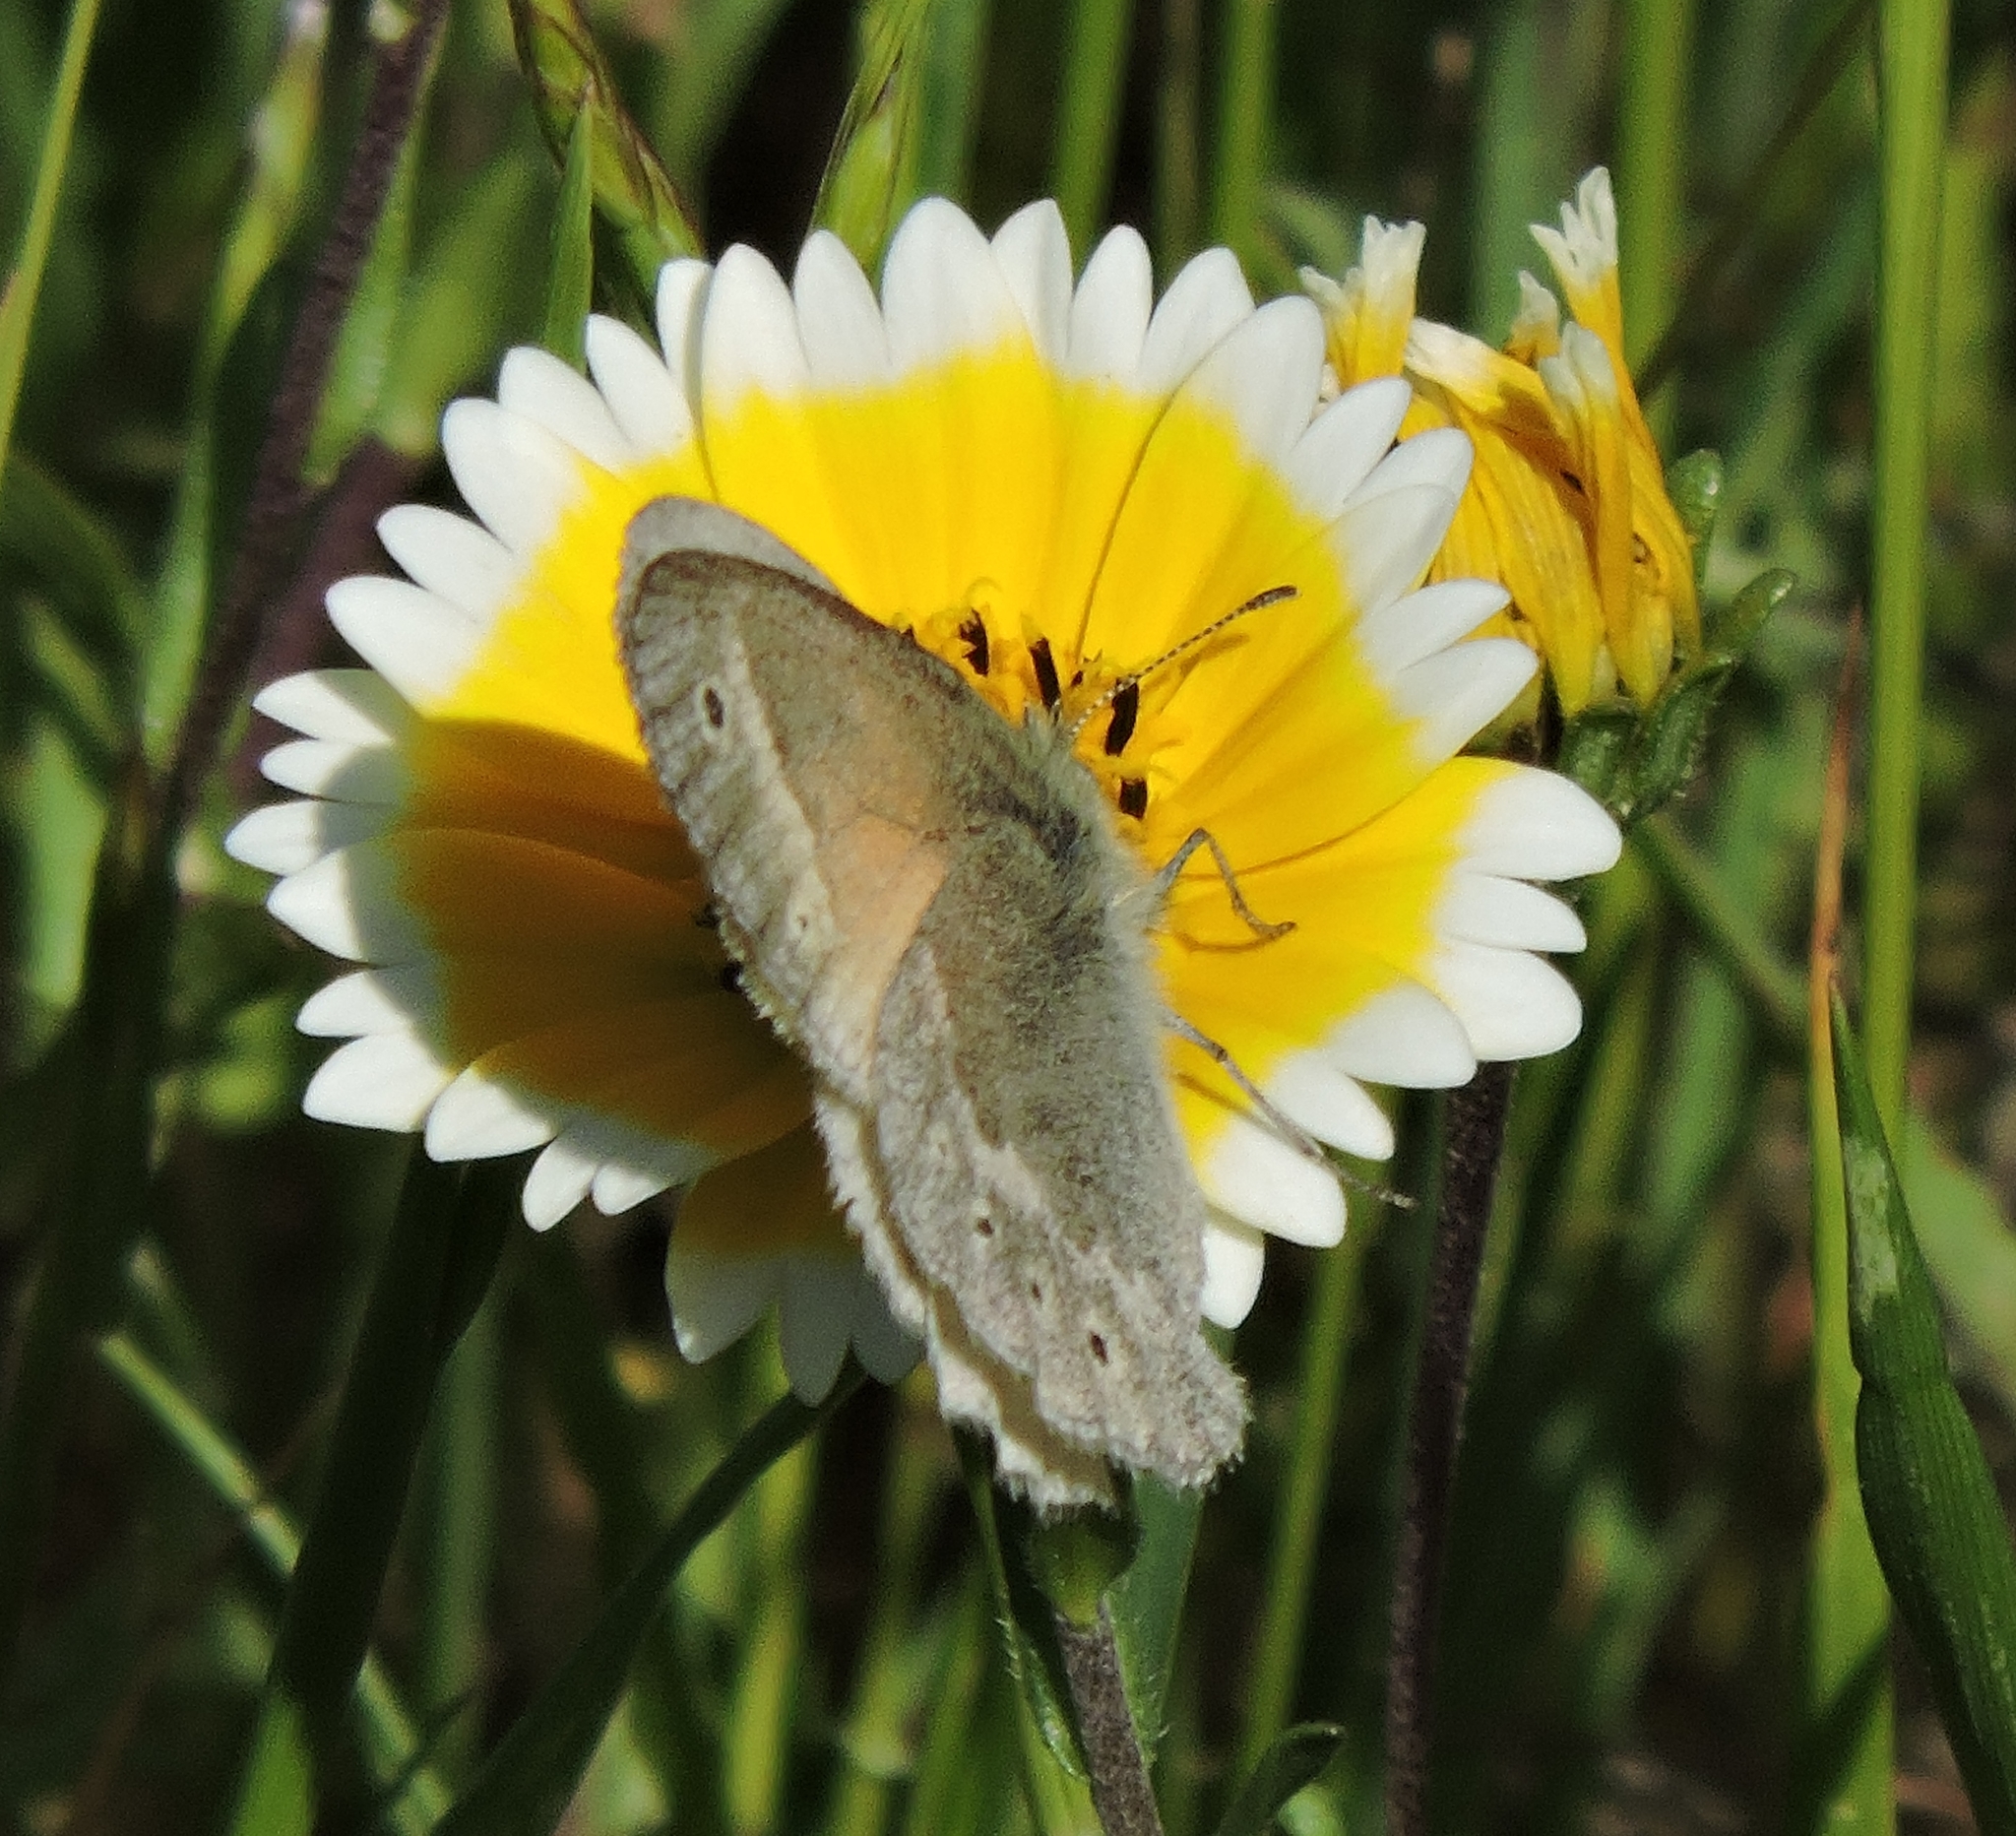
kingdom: Animalia
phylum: Arthropoda
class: Insecta
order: Lepidoptera
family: Nymphalidae
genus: Coenonympha
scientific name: Coenonympha california
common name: Common ringlet
